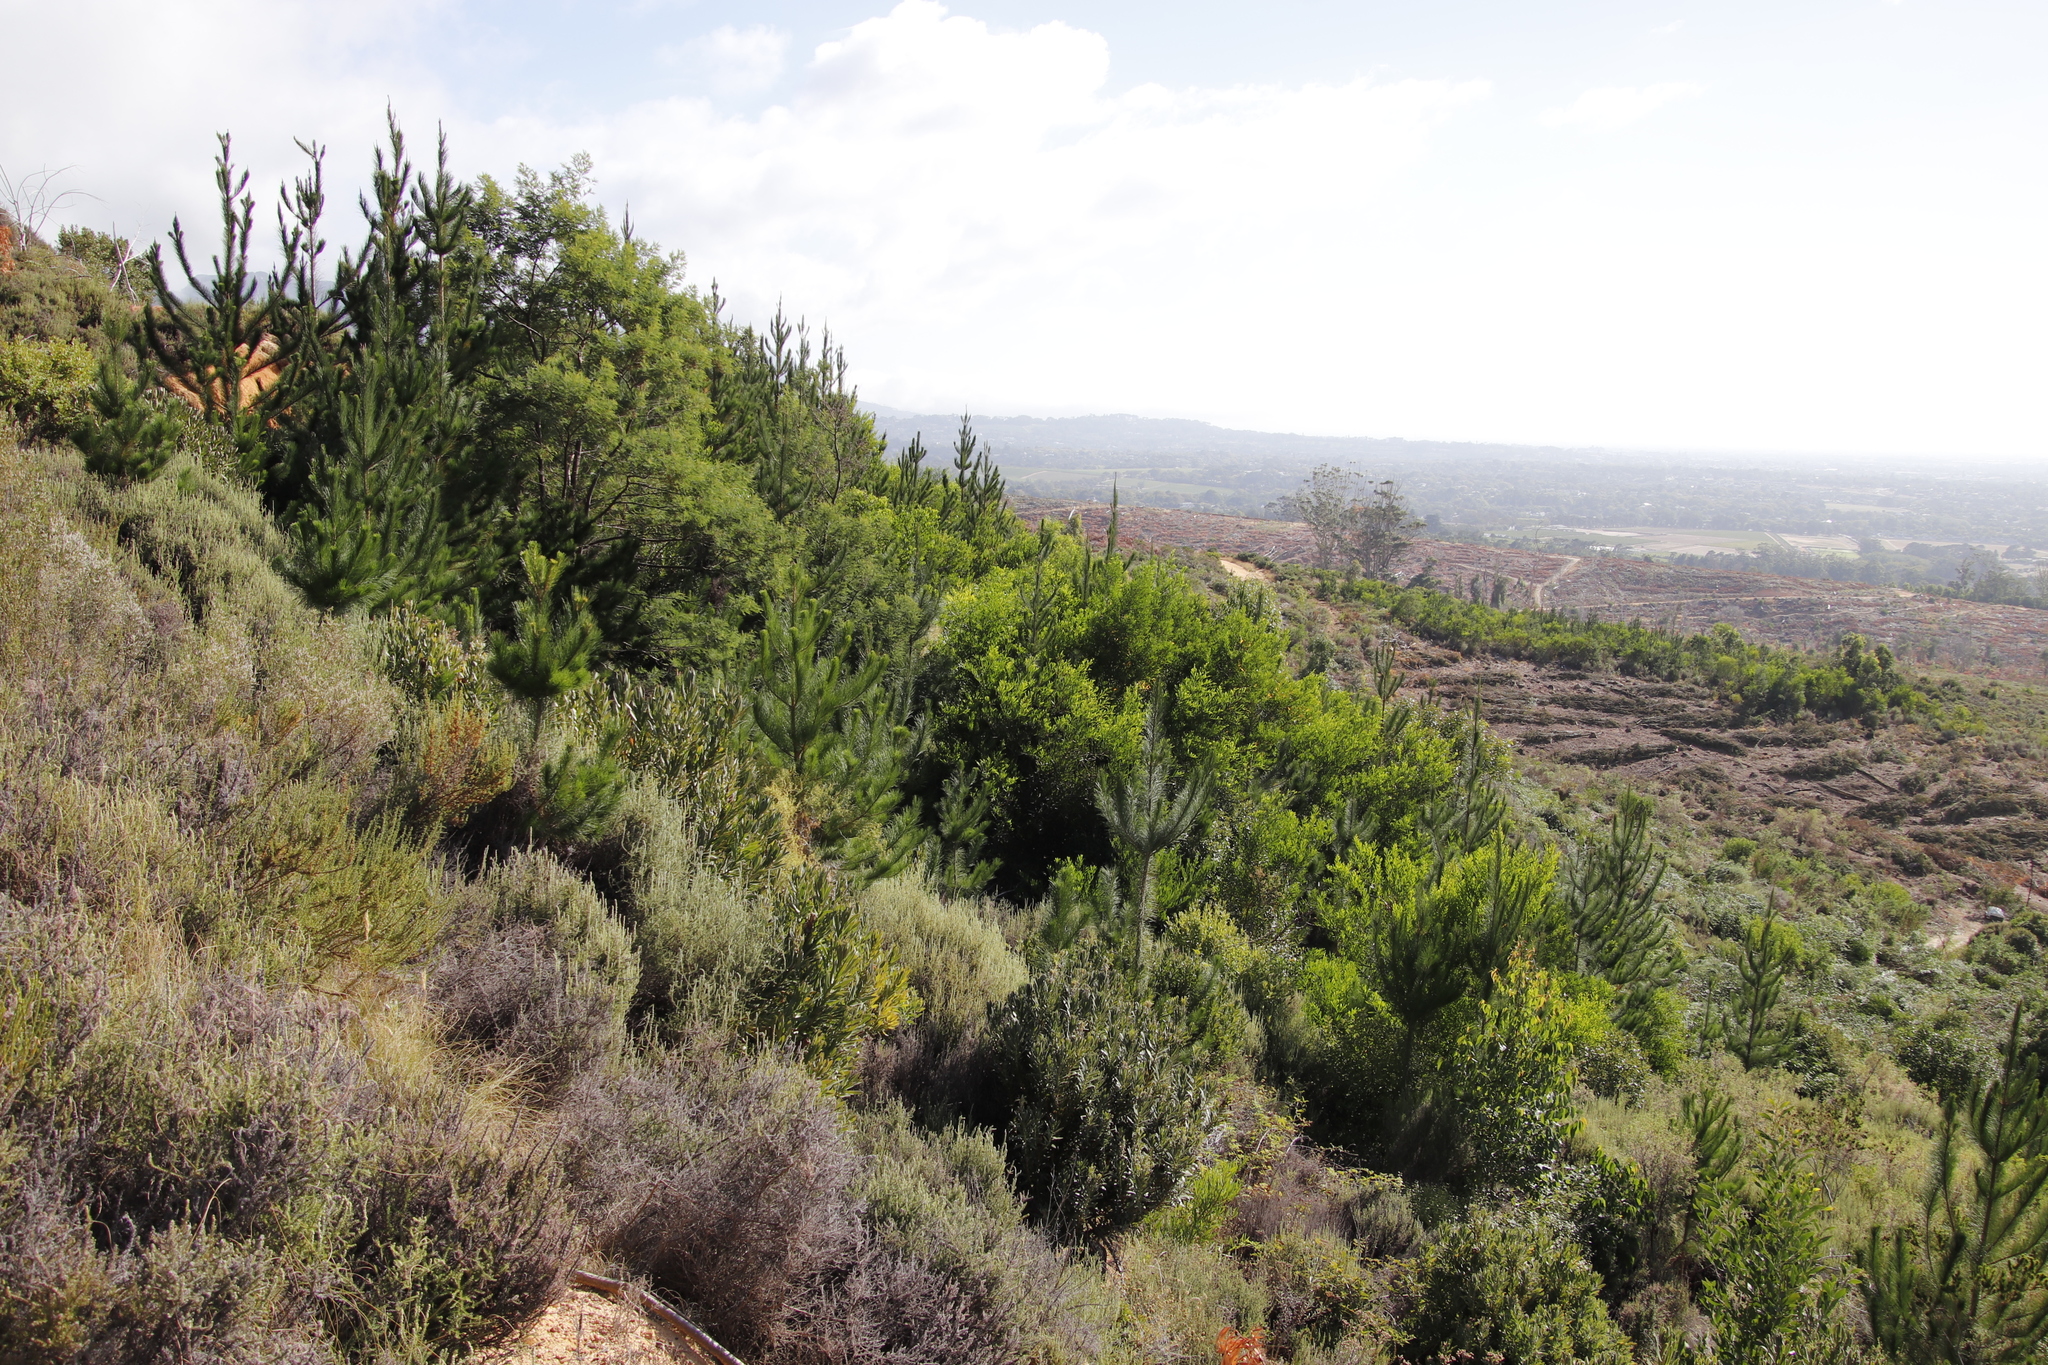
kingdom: Plantae
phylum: Tracheophyta
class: Magnoliopsida
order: Fabales
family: Fabaceae
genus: Acacia
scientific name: Acacia longifolia
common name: Sydney golden wattle
